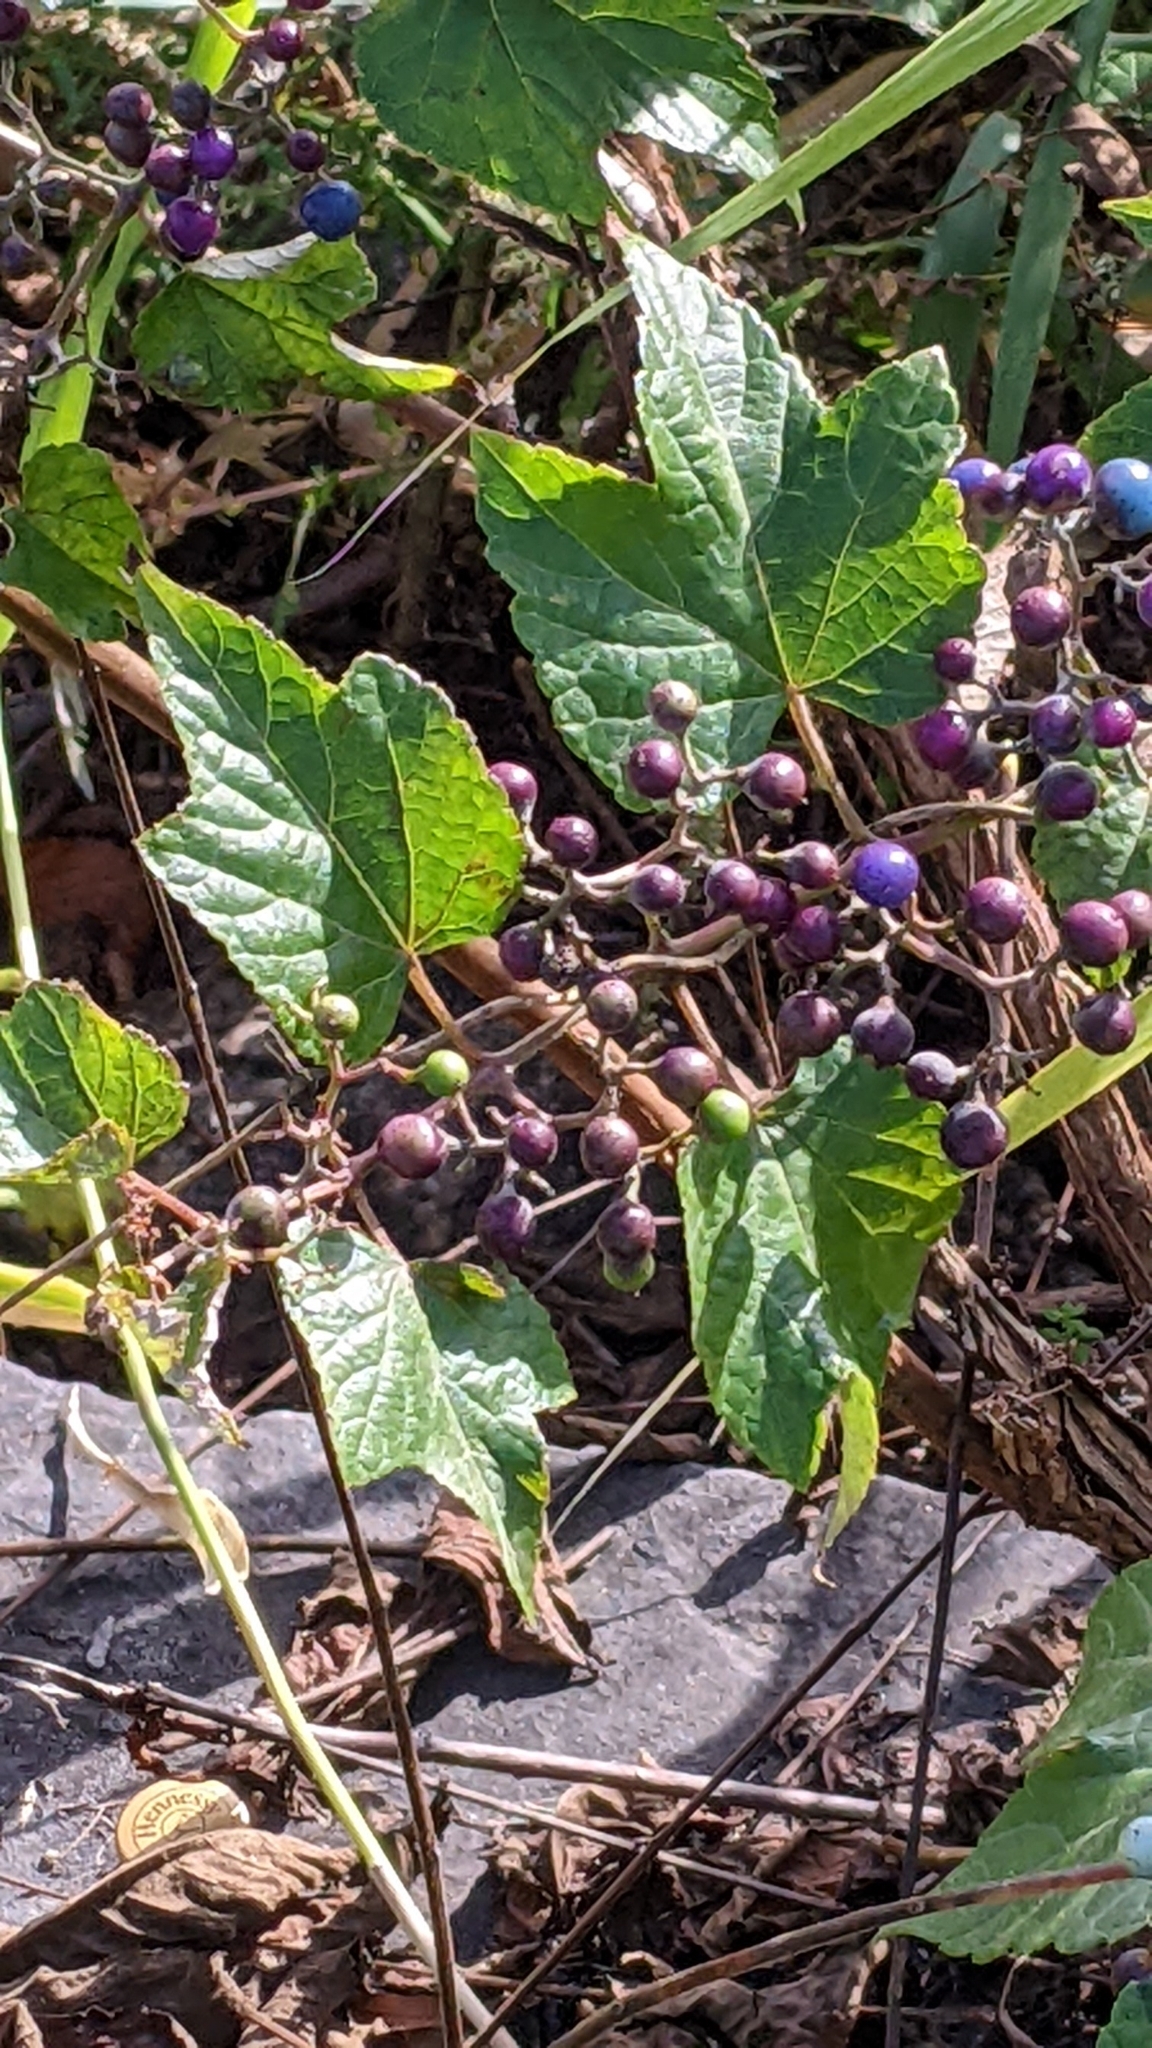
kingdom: Plantae
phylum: Tracheophyta
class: Magnoliopsida
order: Vitales
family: Vitaceae
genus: Ampelopsis
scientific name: Ampelopsis glandulosa
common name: Amur peppervine
